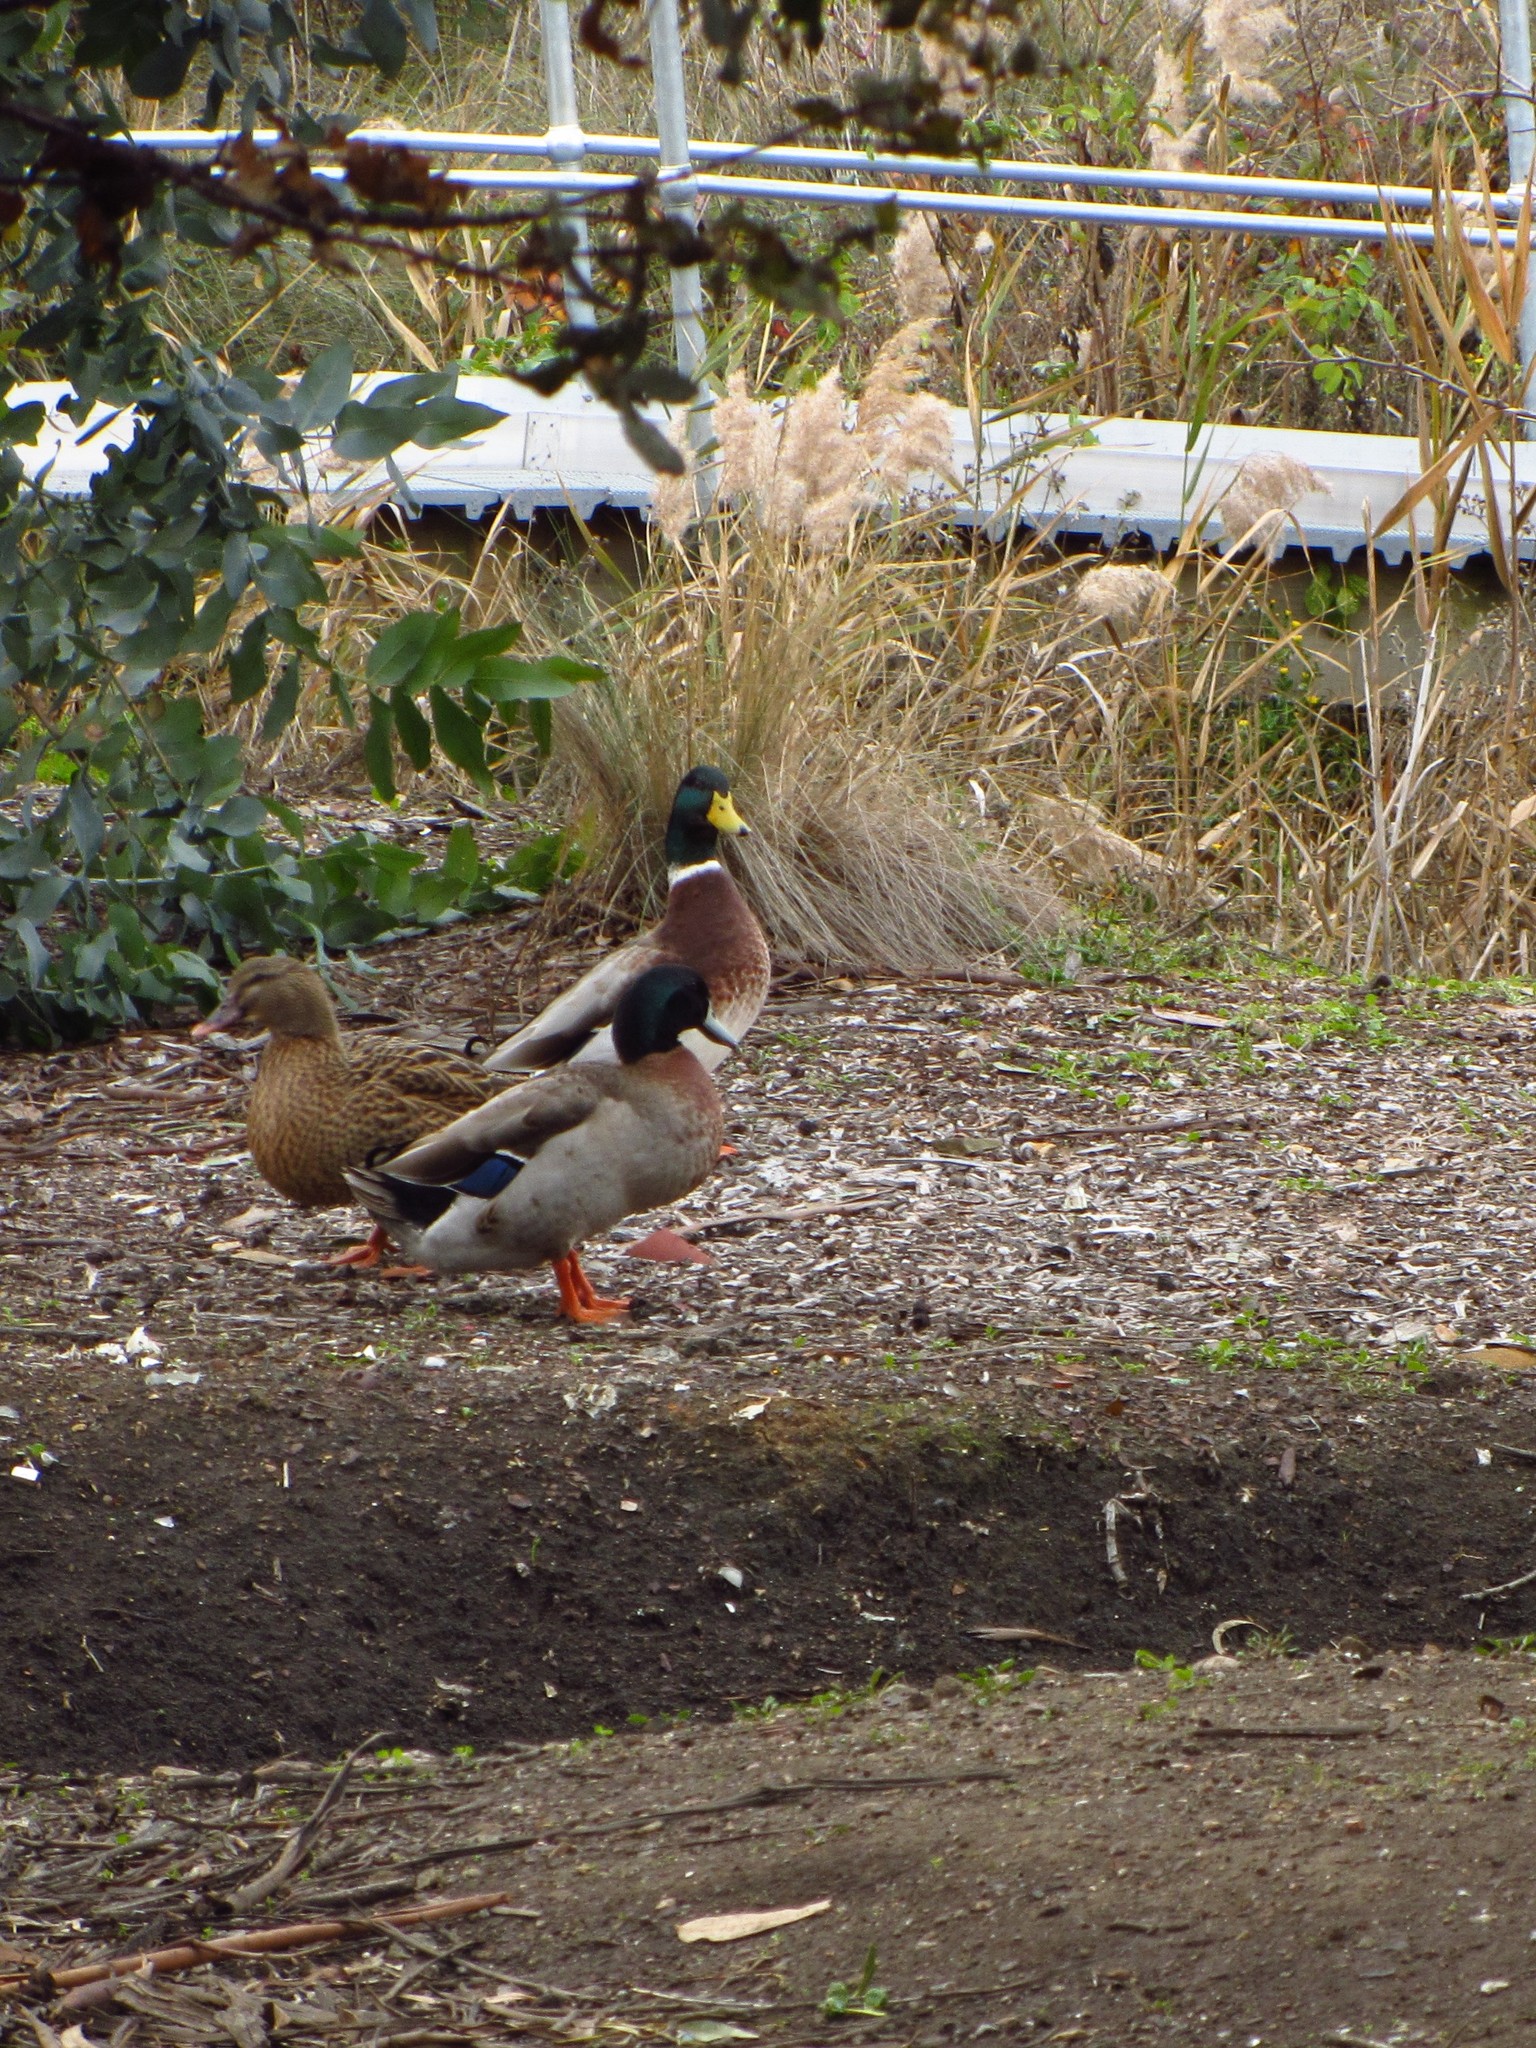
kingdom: Animalia
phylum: Chordata
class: Aves
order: Anseriformes
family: Anatidae
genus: Anas
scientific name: Anas platyrhynchos
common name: Mallard
